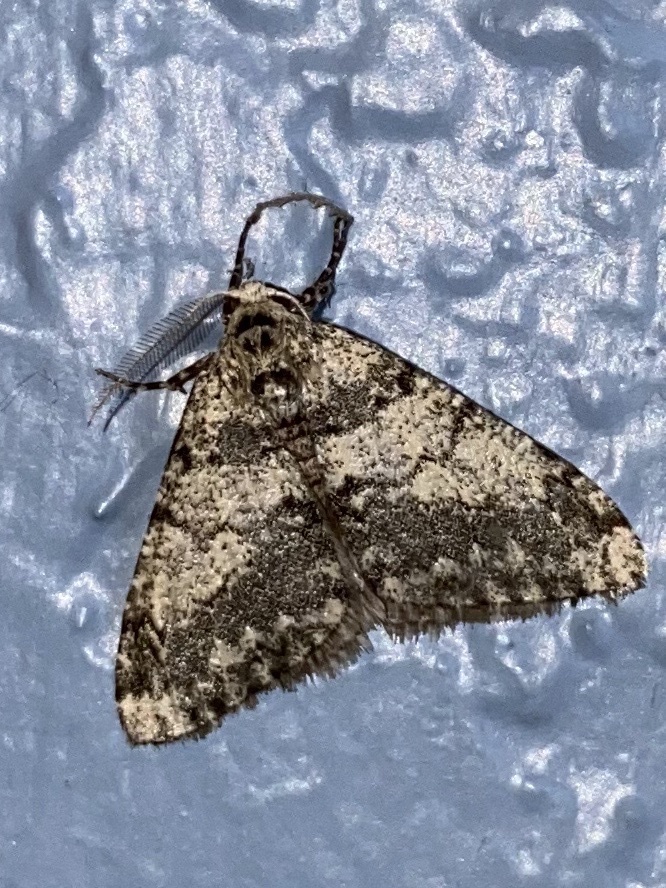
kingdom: Animalia
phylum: Arthropoda
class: Insecta
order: Lepidoptera
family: Geometridae
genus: Phigalia
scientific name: Phigalia denticulata
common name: Toothed phigalia
